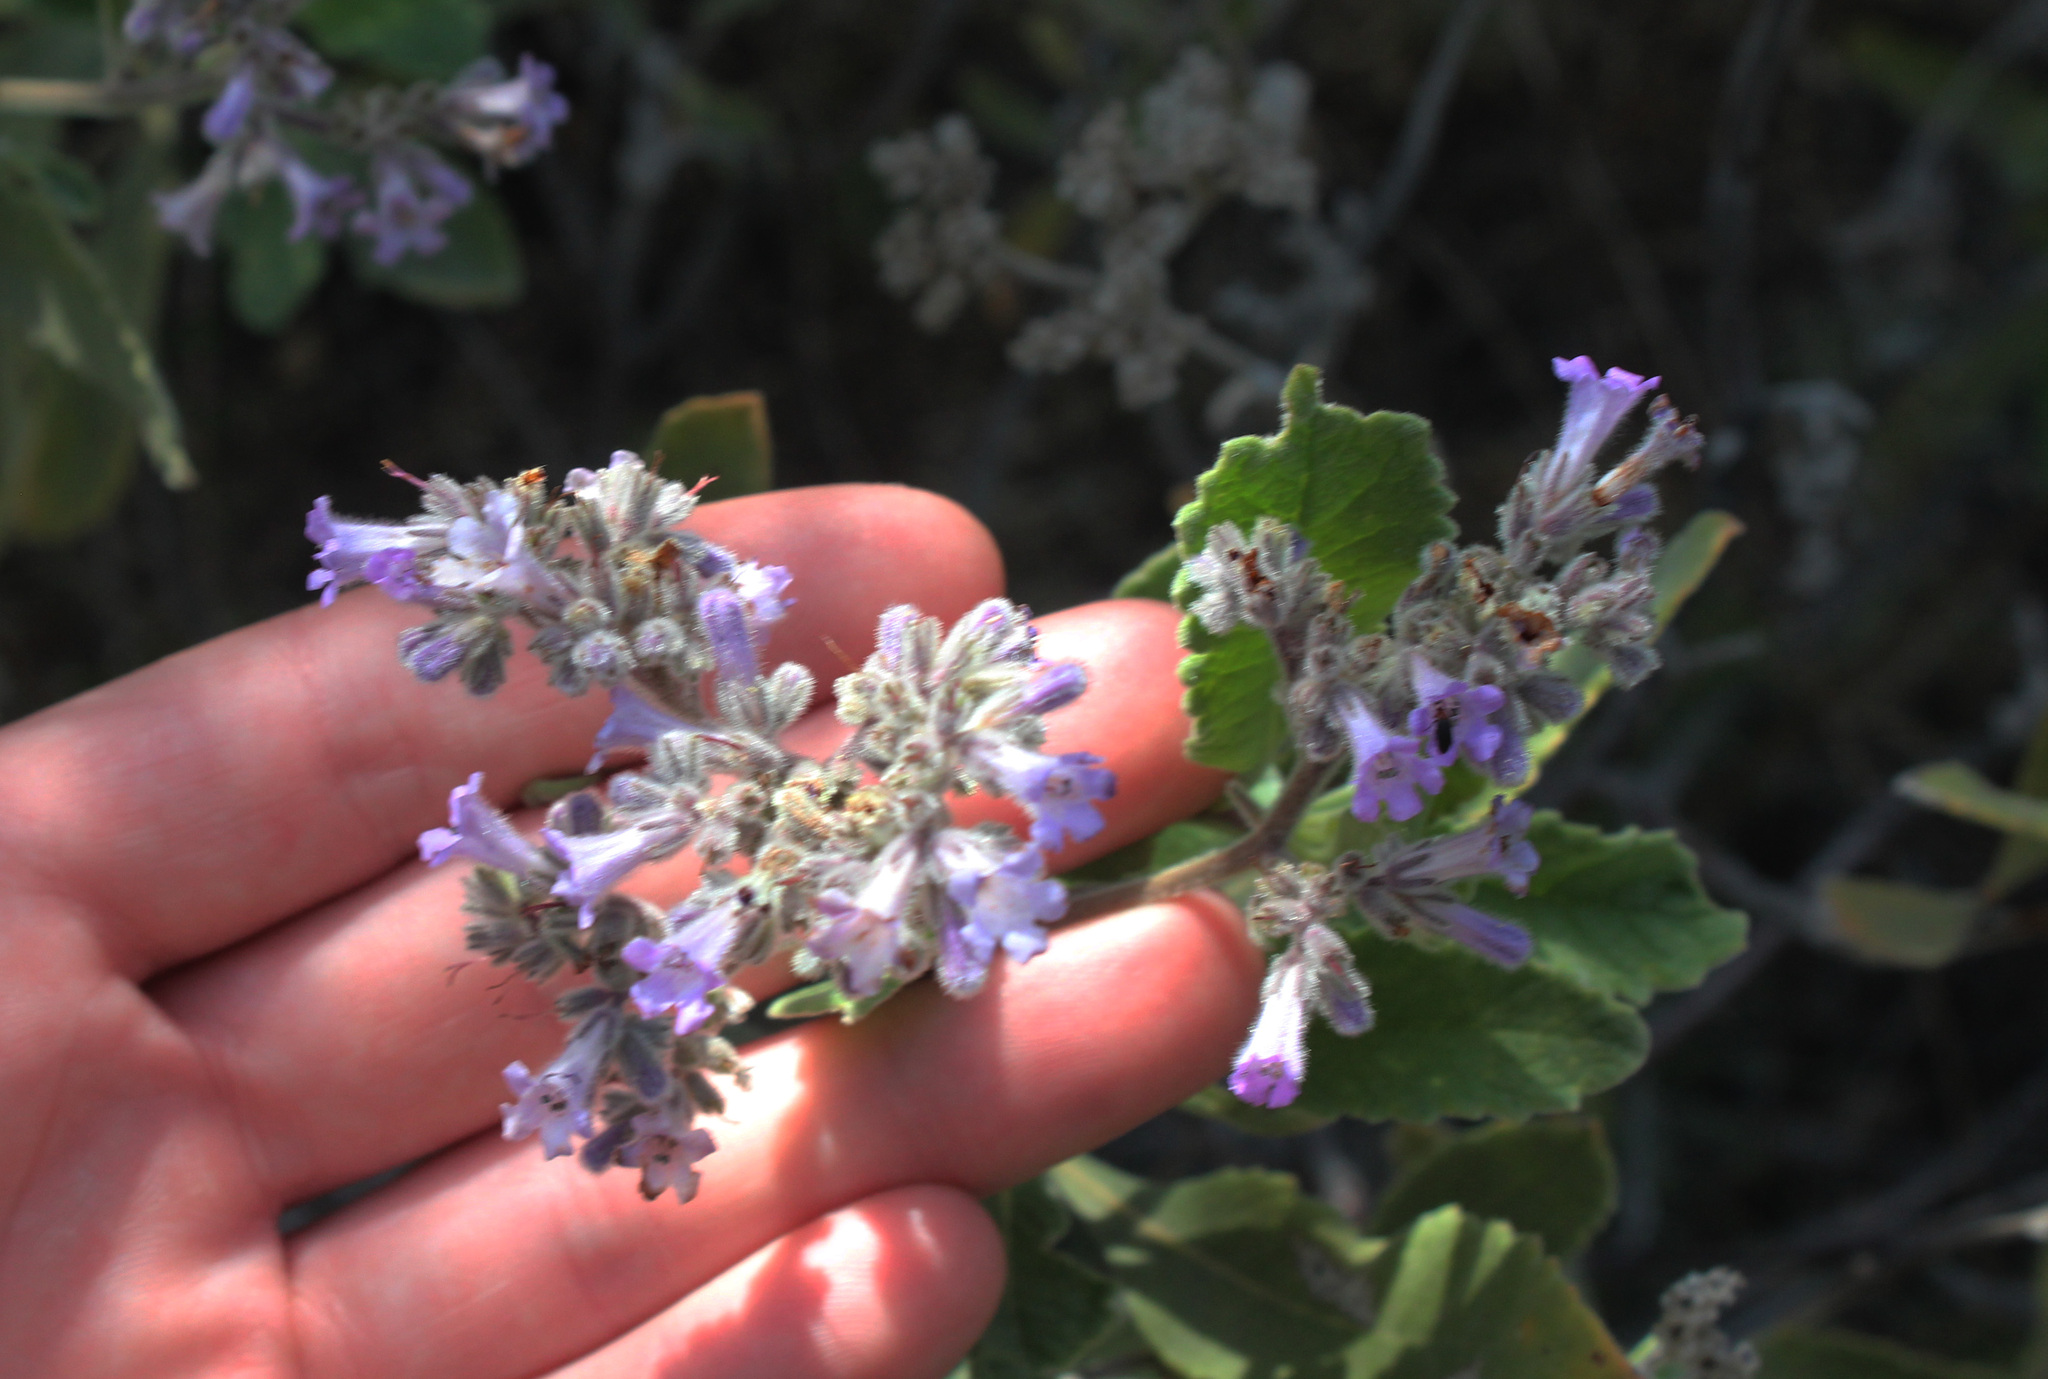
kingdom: Plantae
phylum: Tracheophyta
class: Magnoliopsida
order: Boraginales
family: Namaceae
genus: Eriodictyon
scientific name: Eriodictyon crassifolium
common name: Thick-leaf yerba-santa
